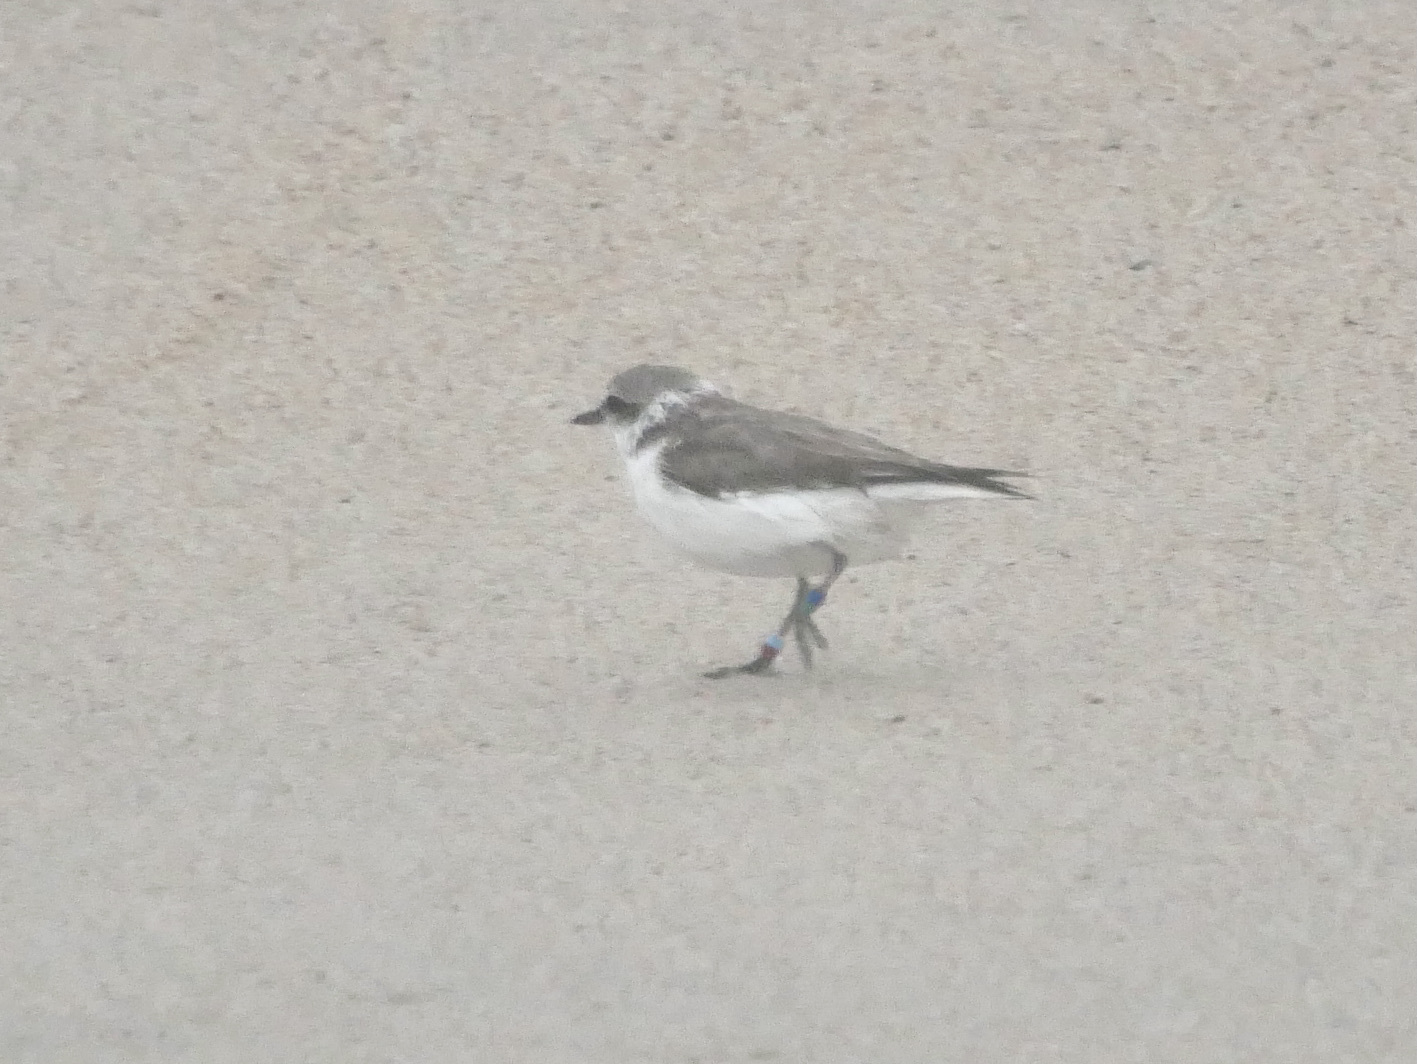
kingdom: Animalia
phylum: Chordata
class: Aves
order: Charadriiformes
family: Charadriidae
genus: Anarhynchus
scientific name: Anarhynchus
